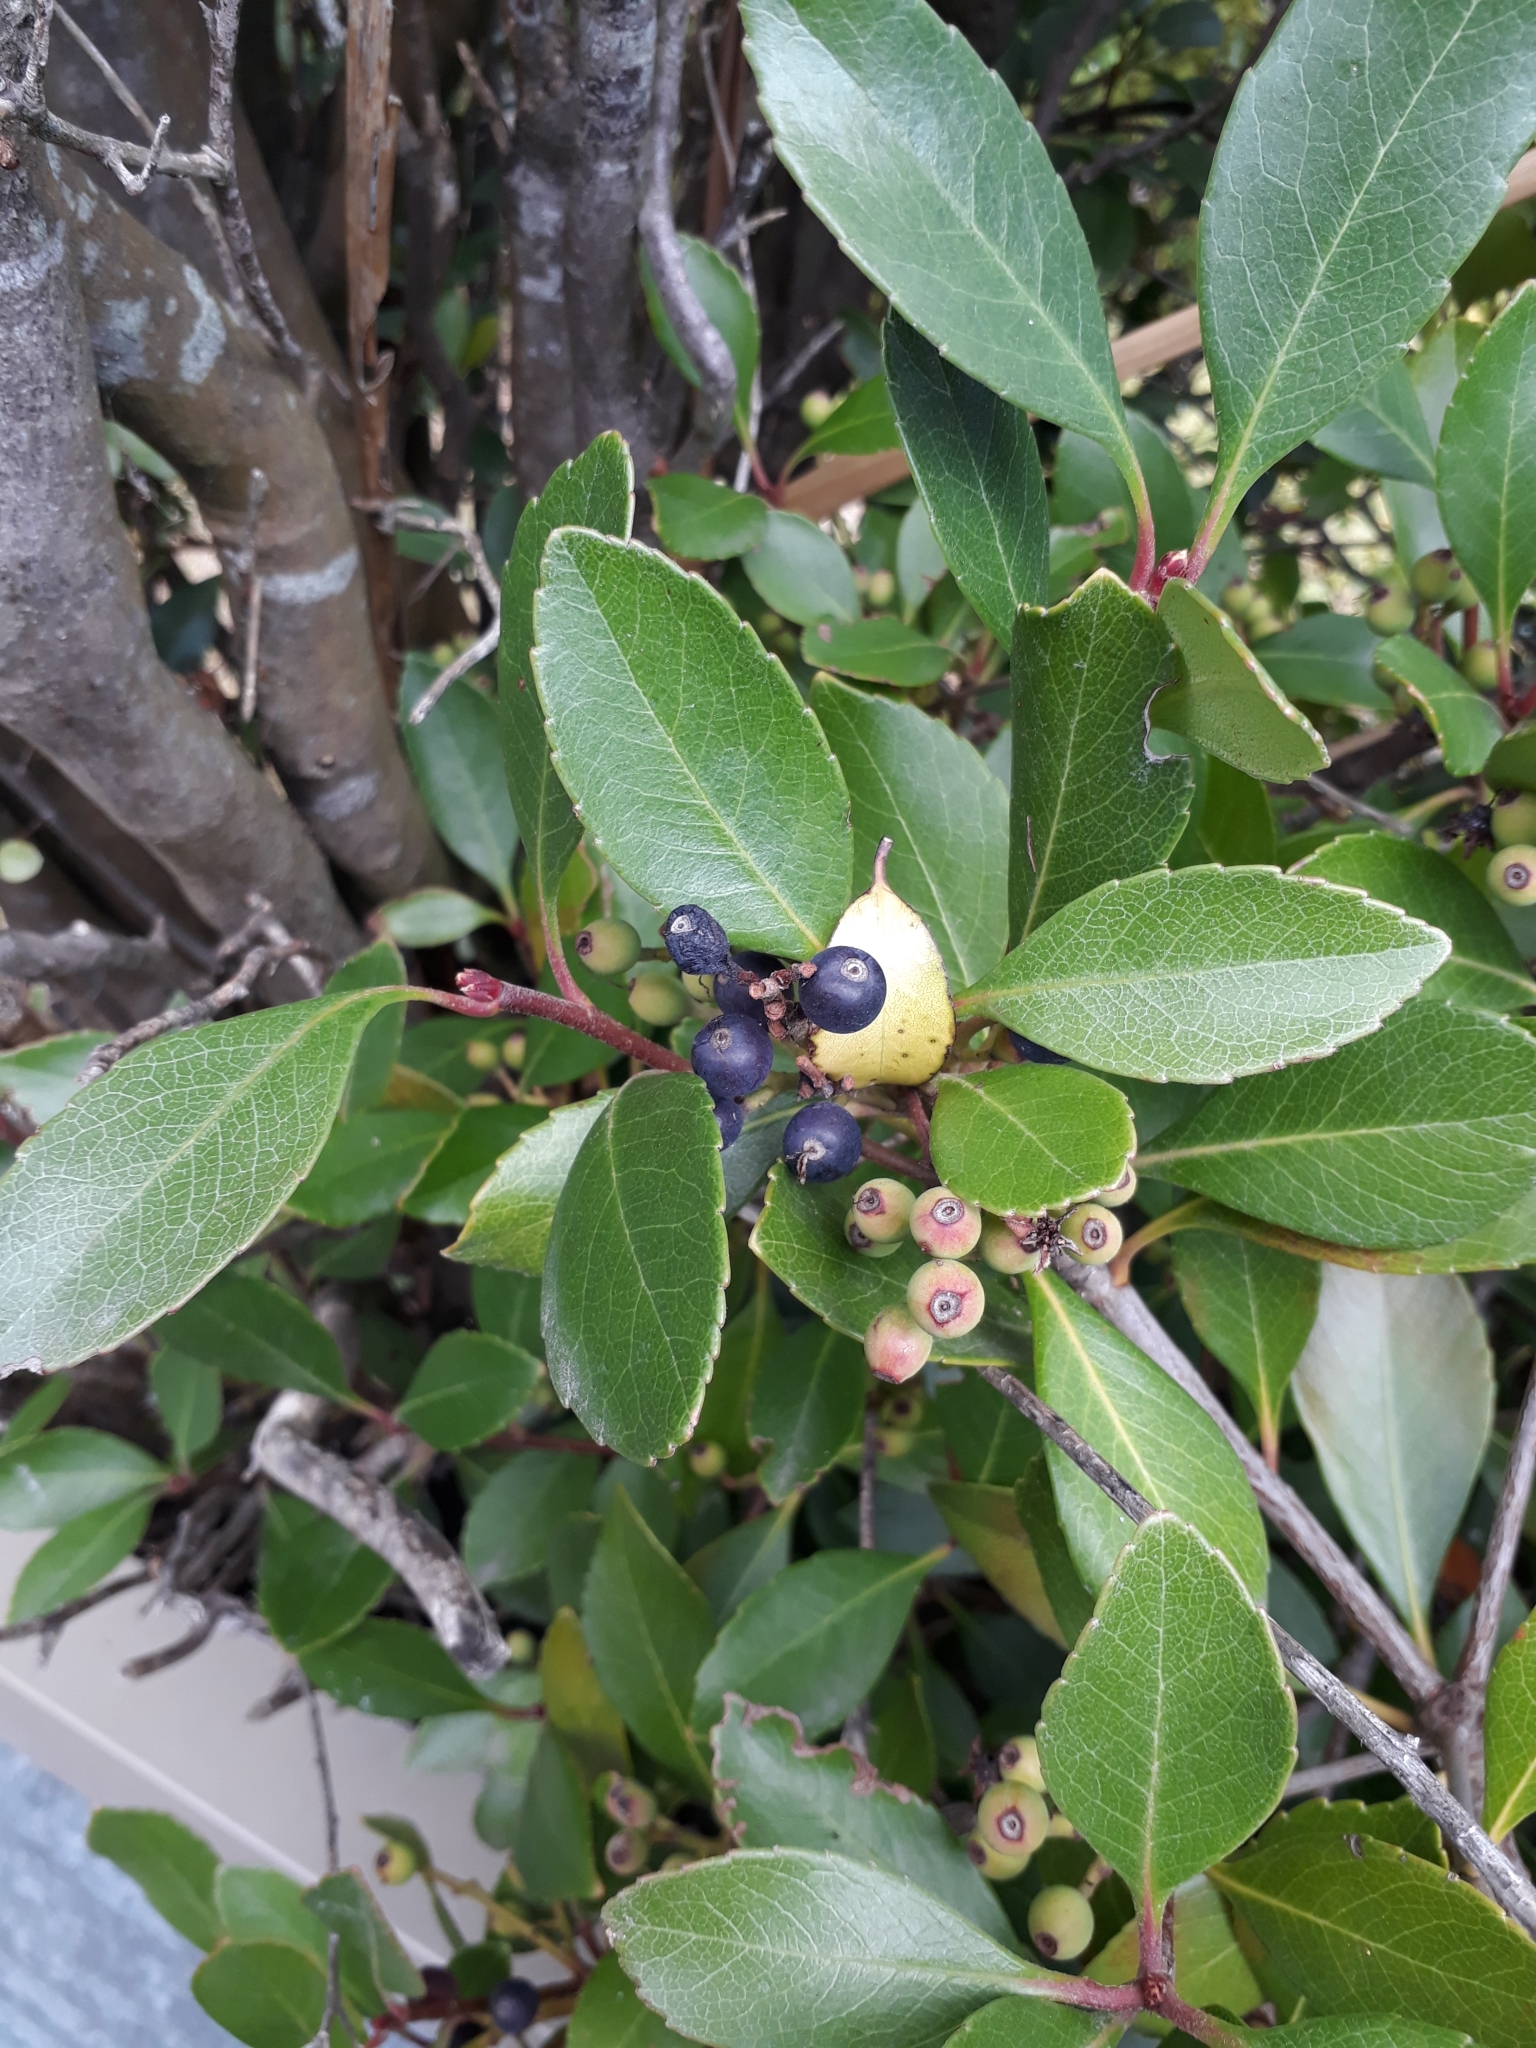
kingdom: Plantae
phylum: Tracheophyta
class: Magnoliopsida
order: Rosales
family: Rhamnaceae
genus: Rhamnus
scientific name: Rhamnus alaternus
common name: Mediterranean buckthorn
